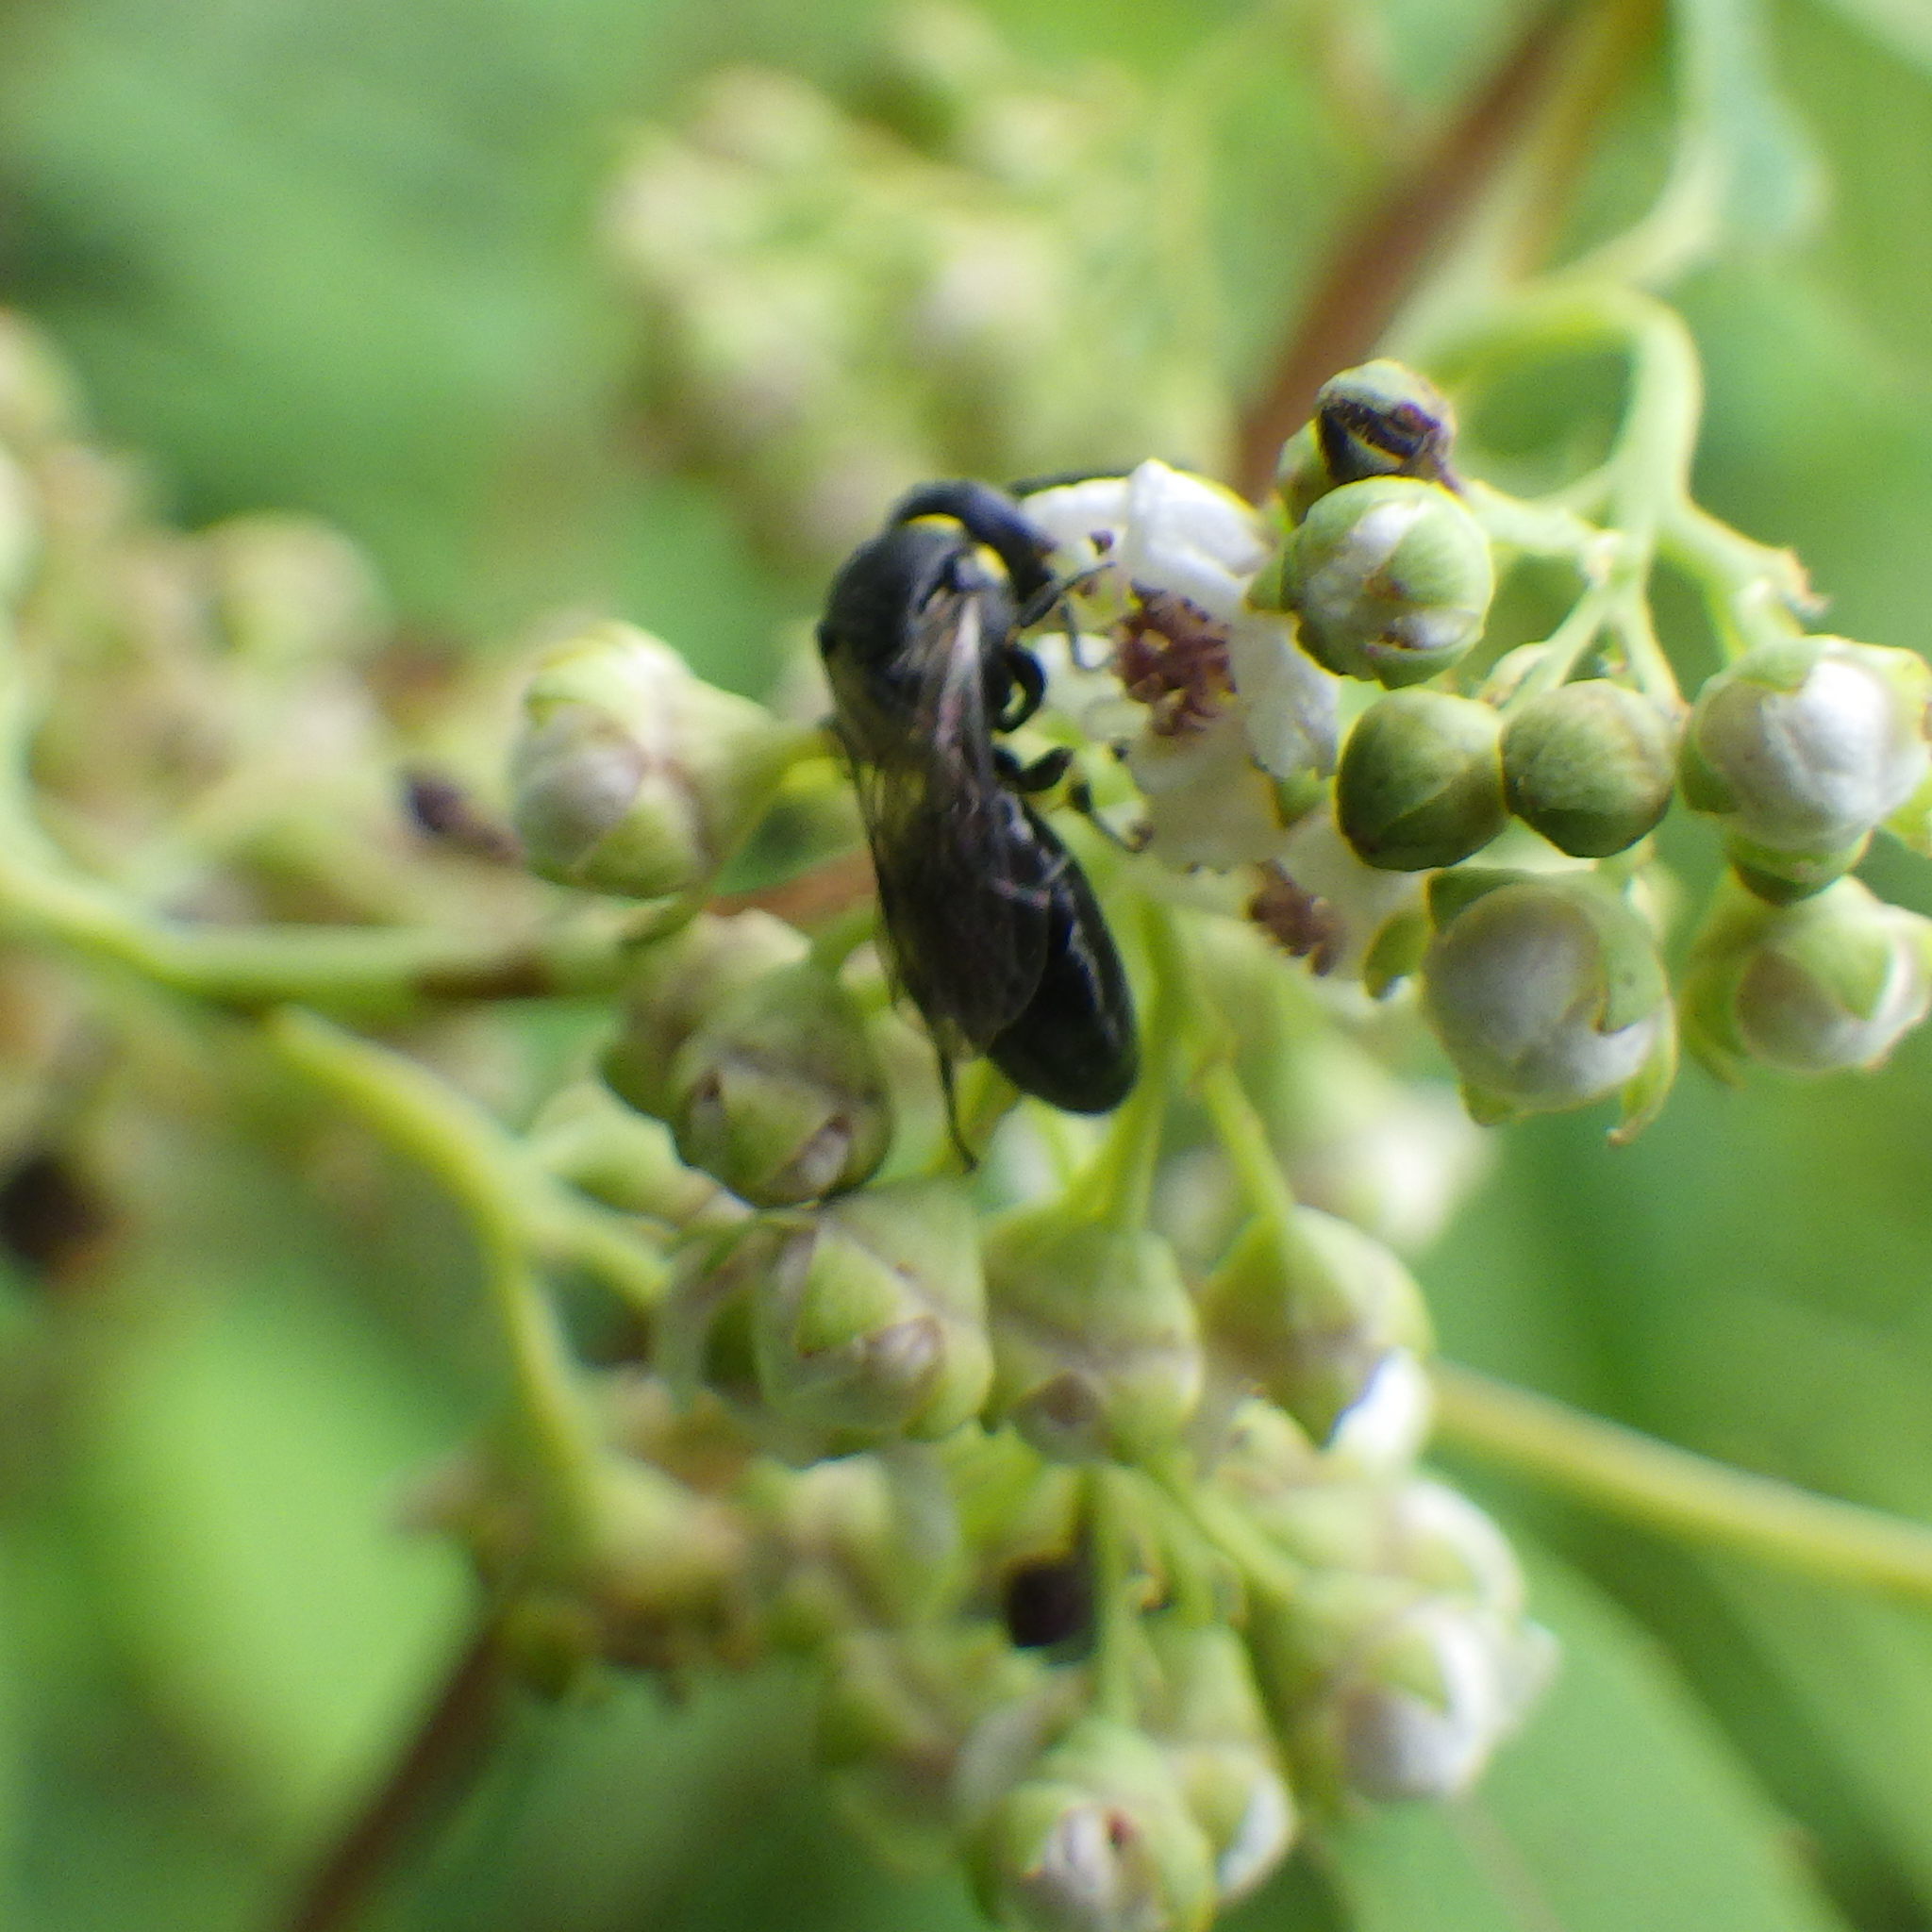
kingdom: Animalia
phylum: Arthropoda
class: Insecta
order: Hymenoptera
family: Colletidae
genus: Hylaeus
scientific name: Hylaeus modestus
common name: Yellow-faced bee
